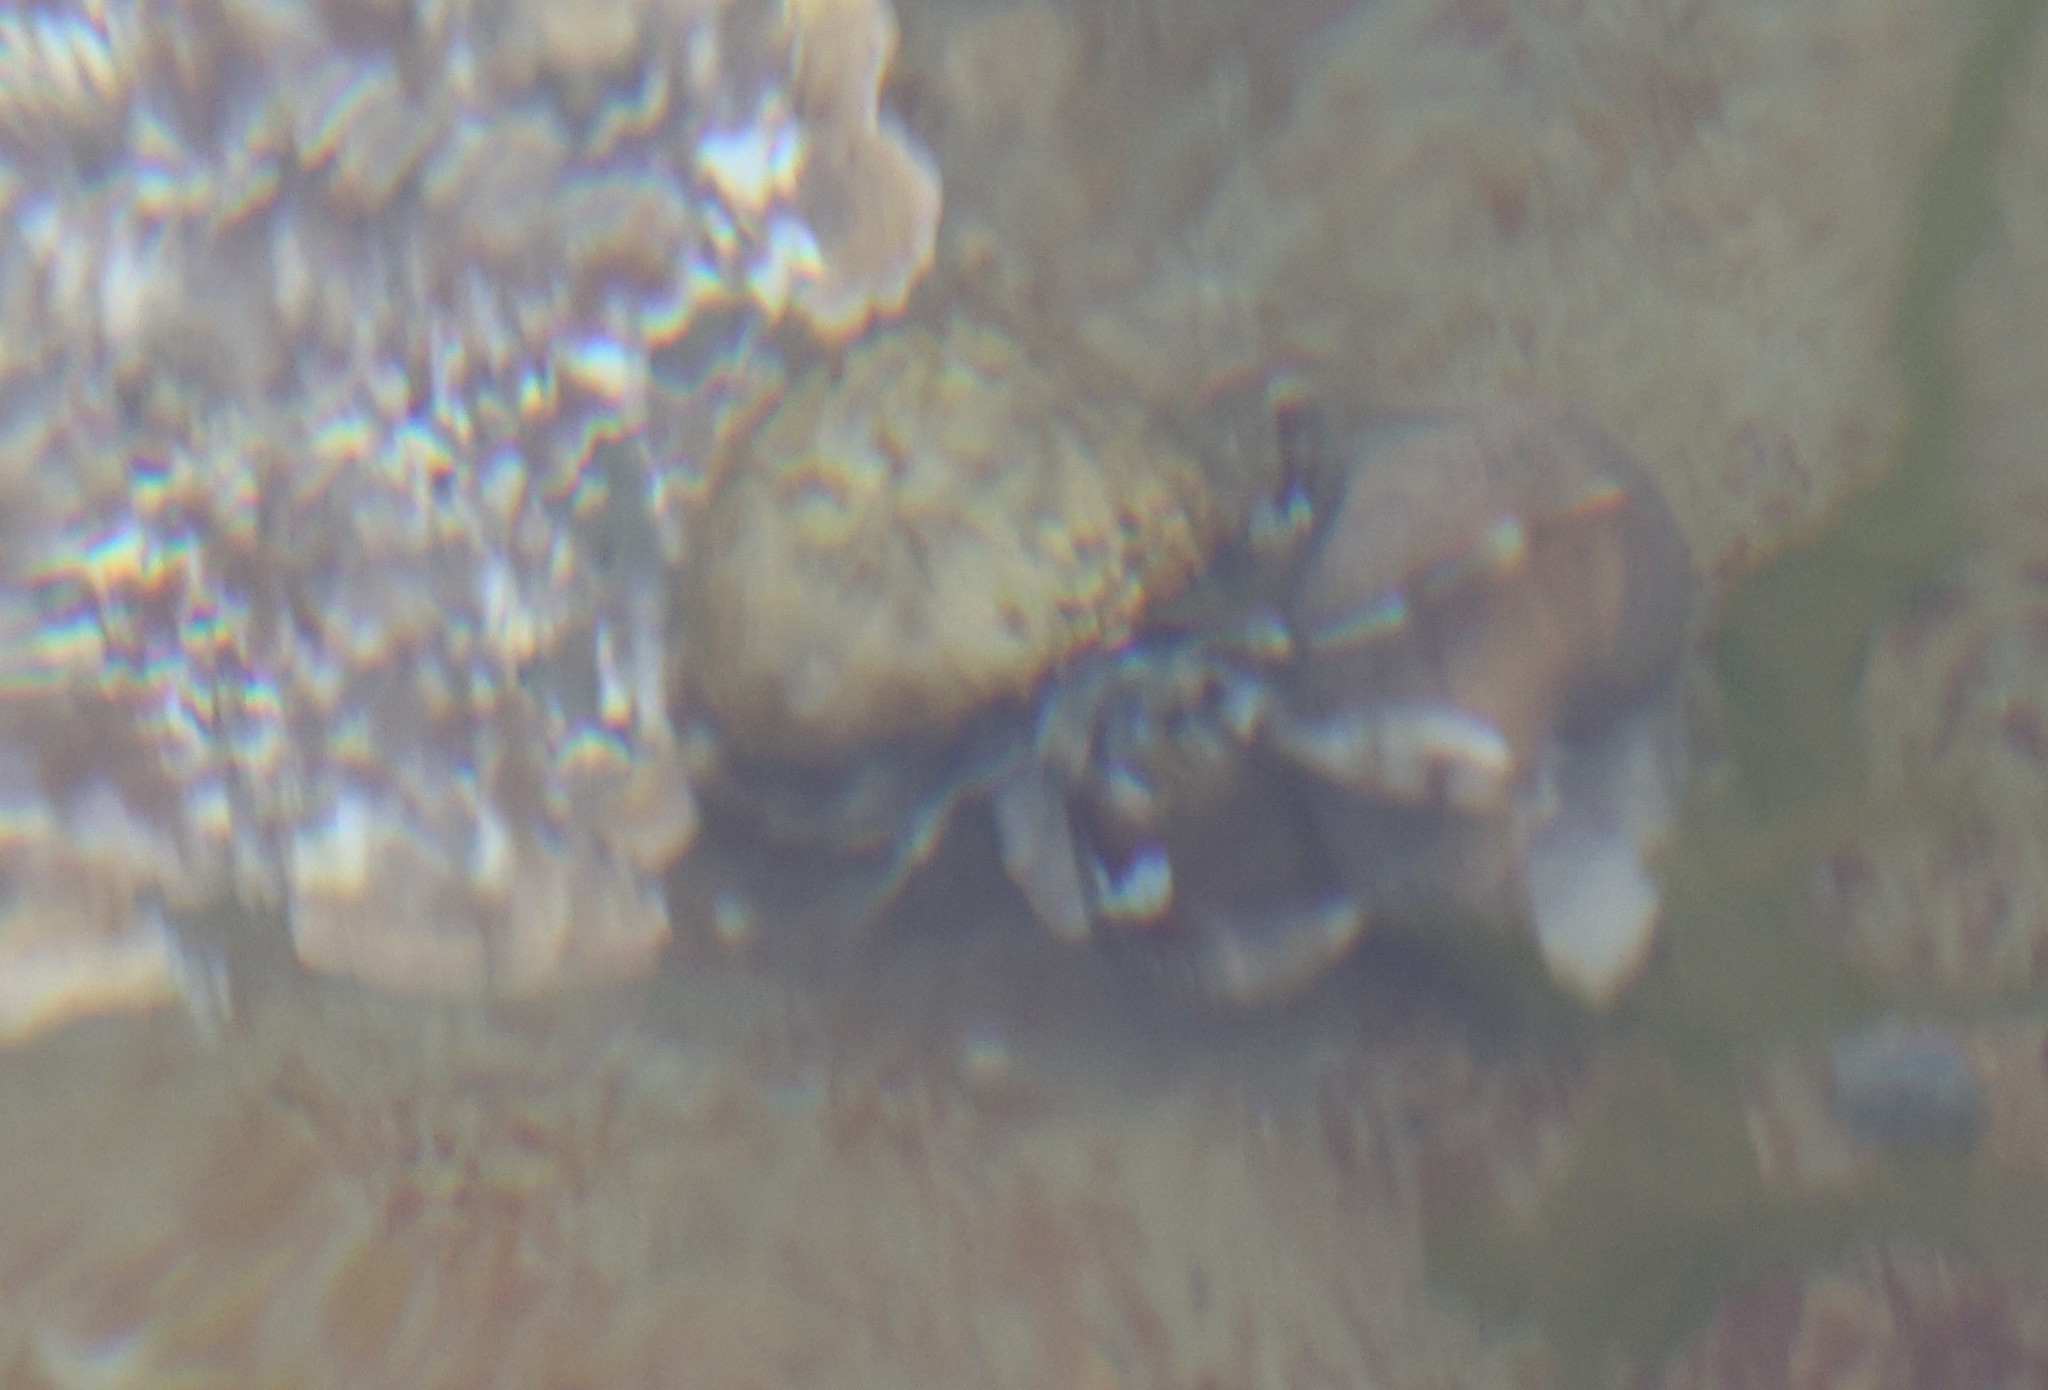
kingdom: Animalia
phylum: Arthropoda
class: Malacostraca
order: Decapoda
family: Paguridae
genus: Pagurus
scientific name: Pagurus bernhardus
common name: Hermit crab
